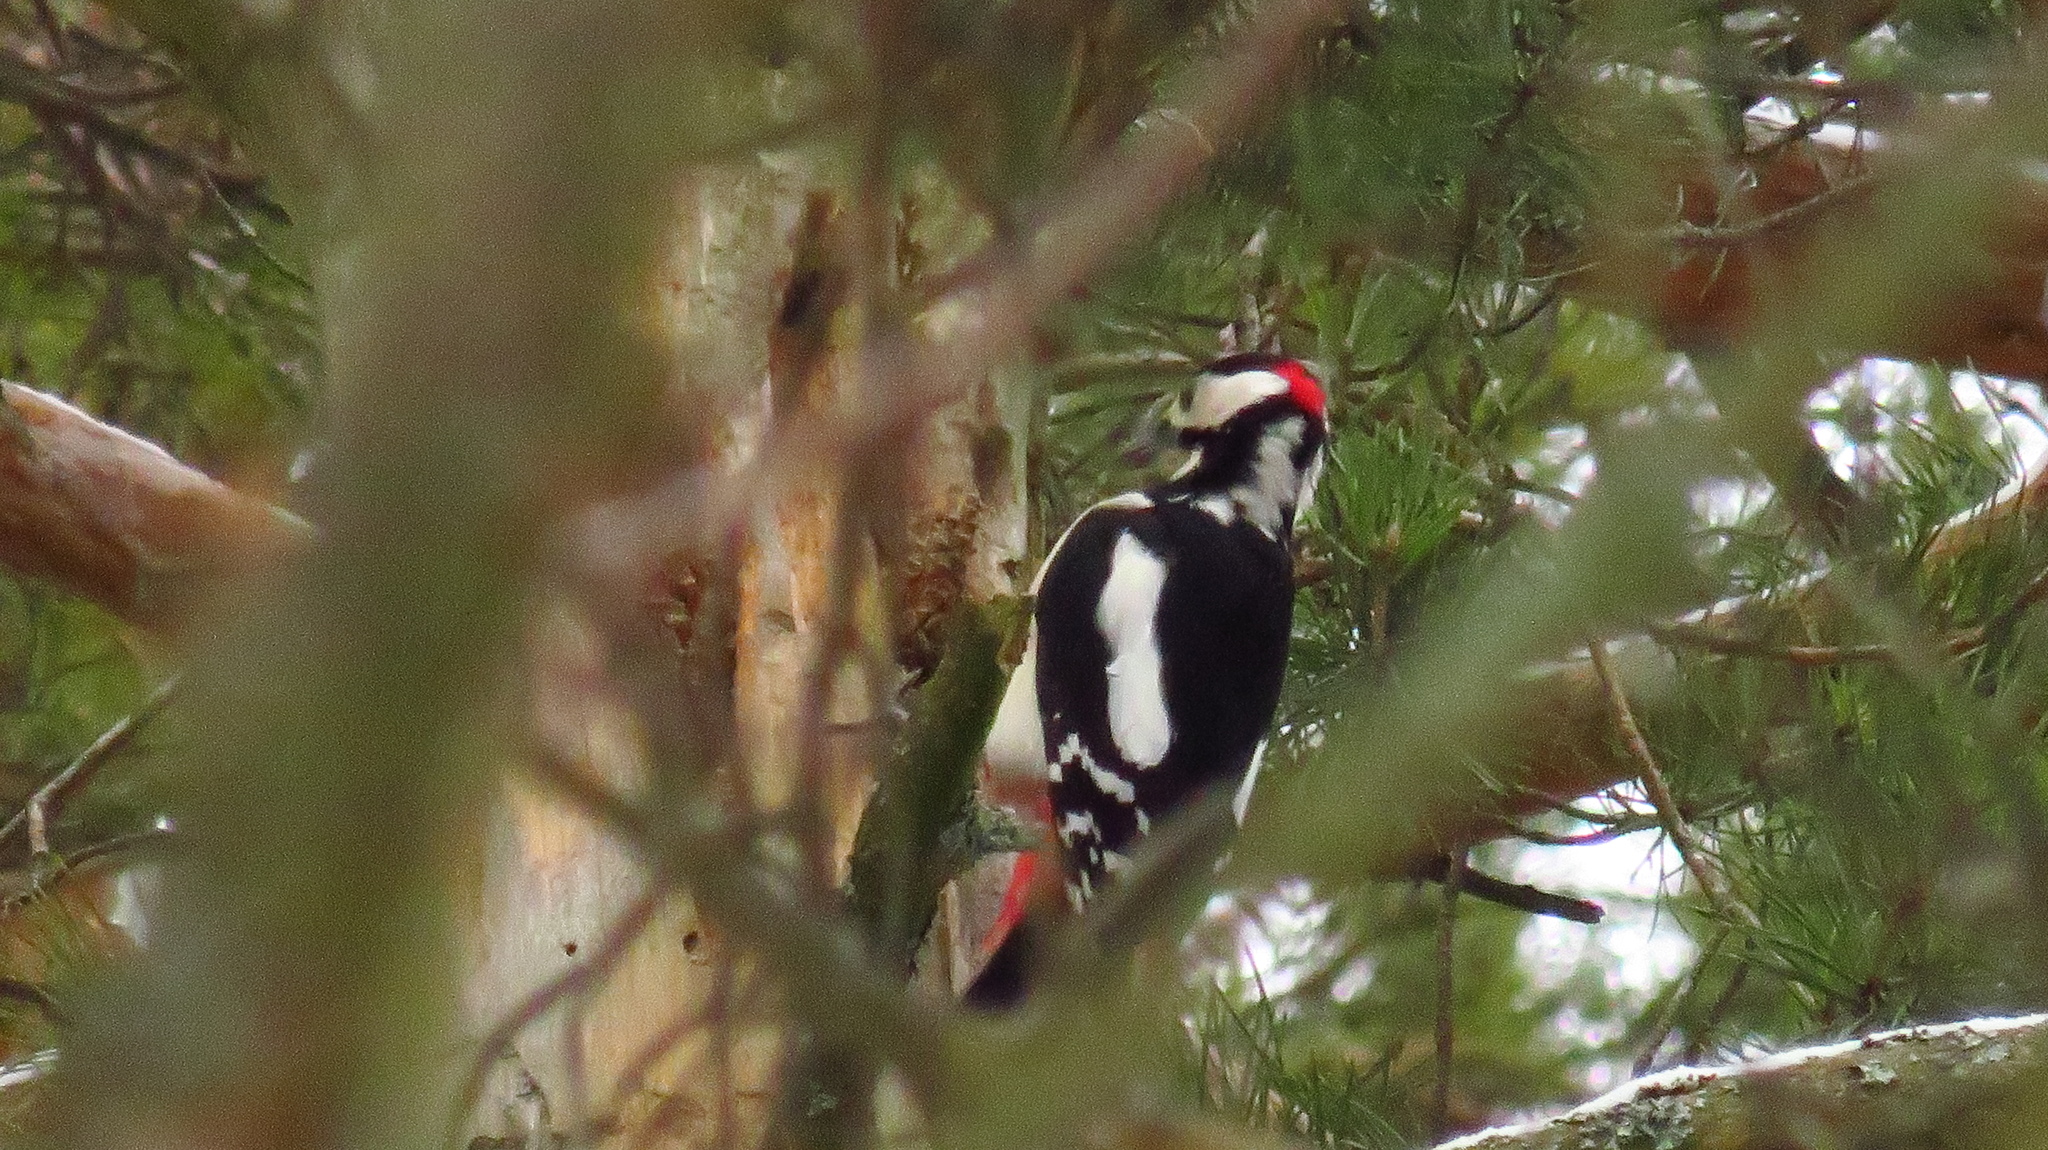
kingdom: Animalia
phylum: Chordata
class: Aves
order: Piciformes
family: Picidae
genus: Dendrocopos
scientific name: Dendrocopos major
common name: Great spotted woodpecker
